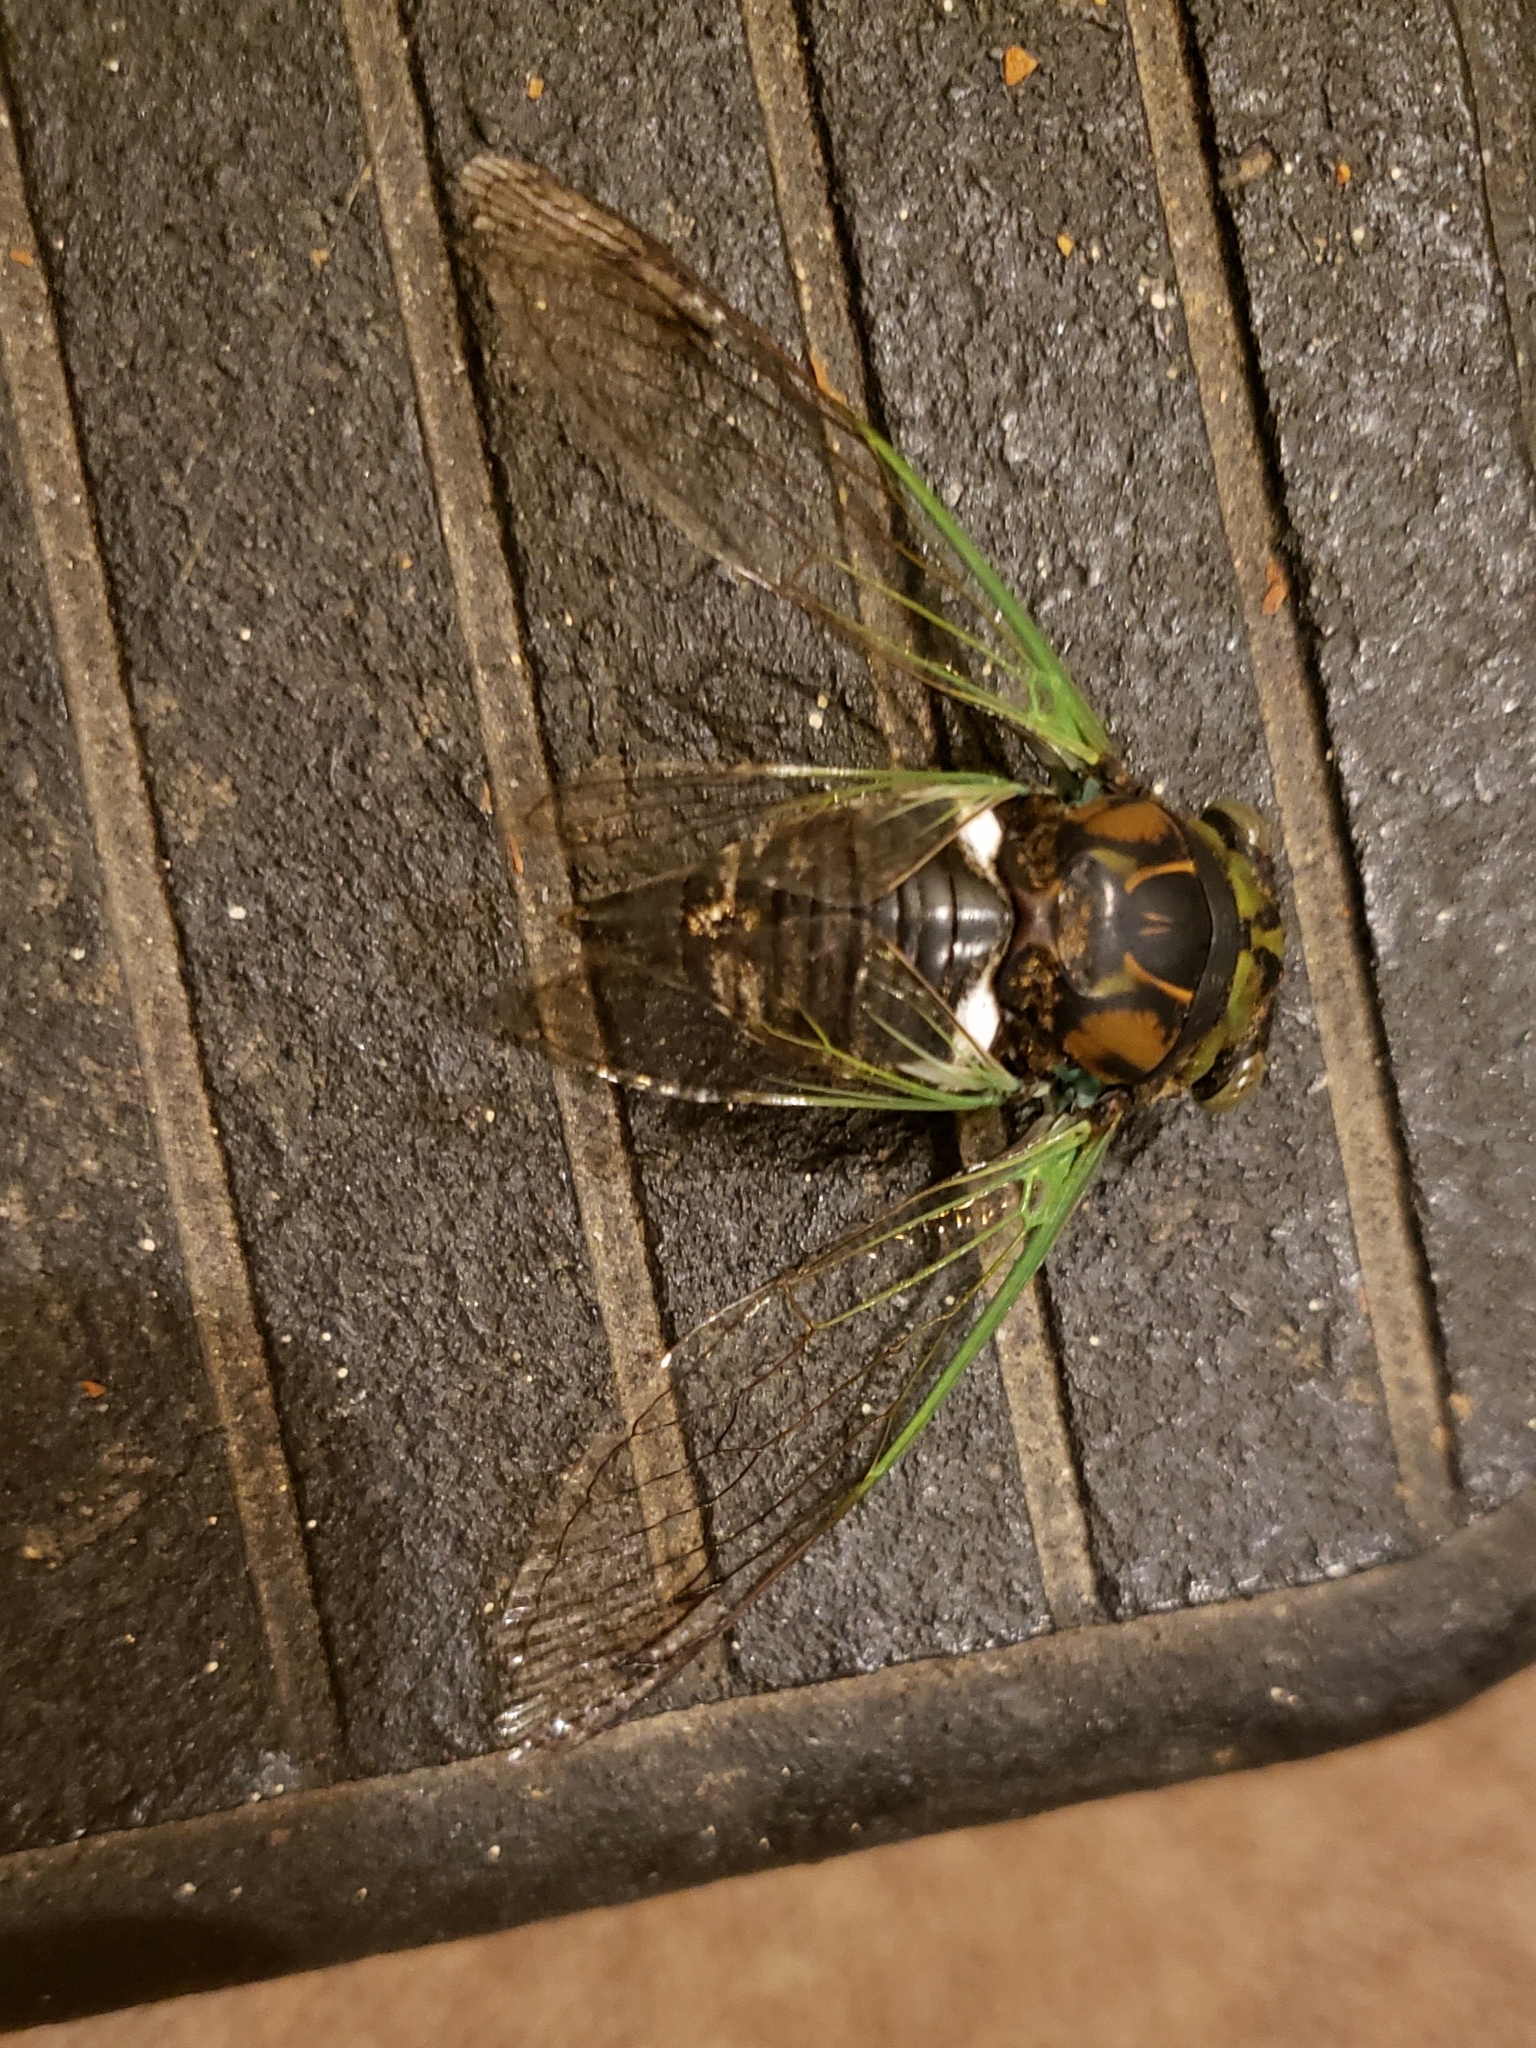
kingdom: Animalia
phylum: Arthropoda
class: Insecta
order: Hemiptera
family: Cicadidae
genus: Neotibicen
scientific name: Neotibicen tibicen
